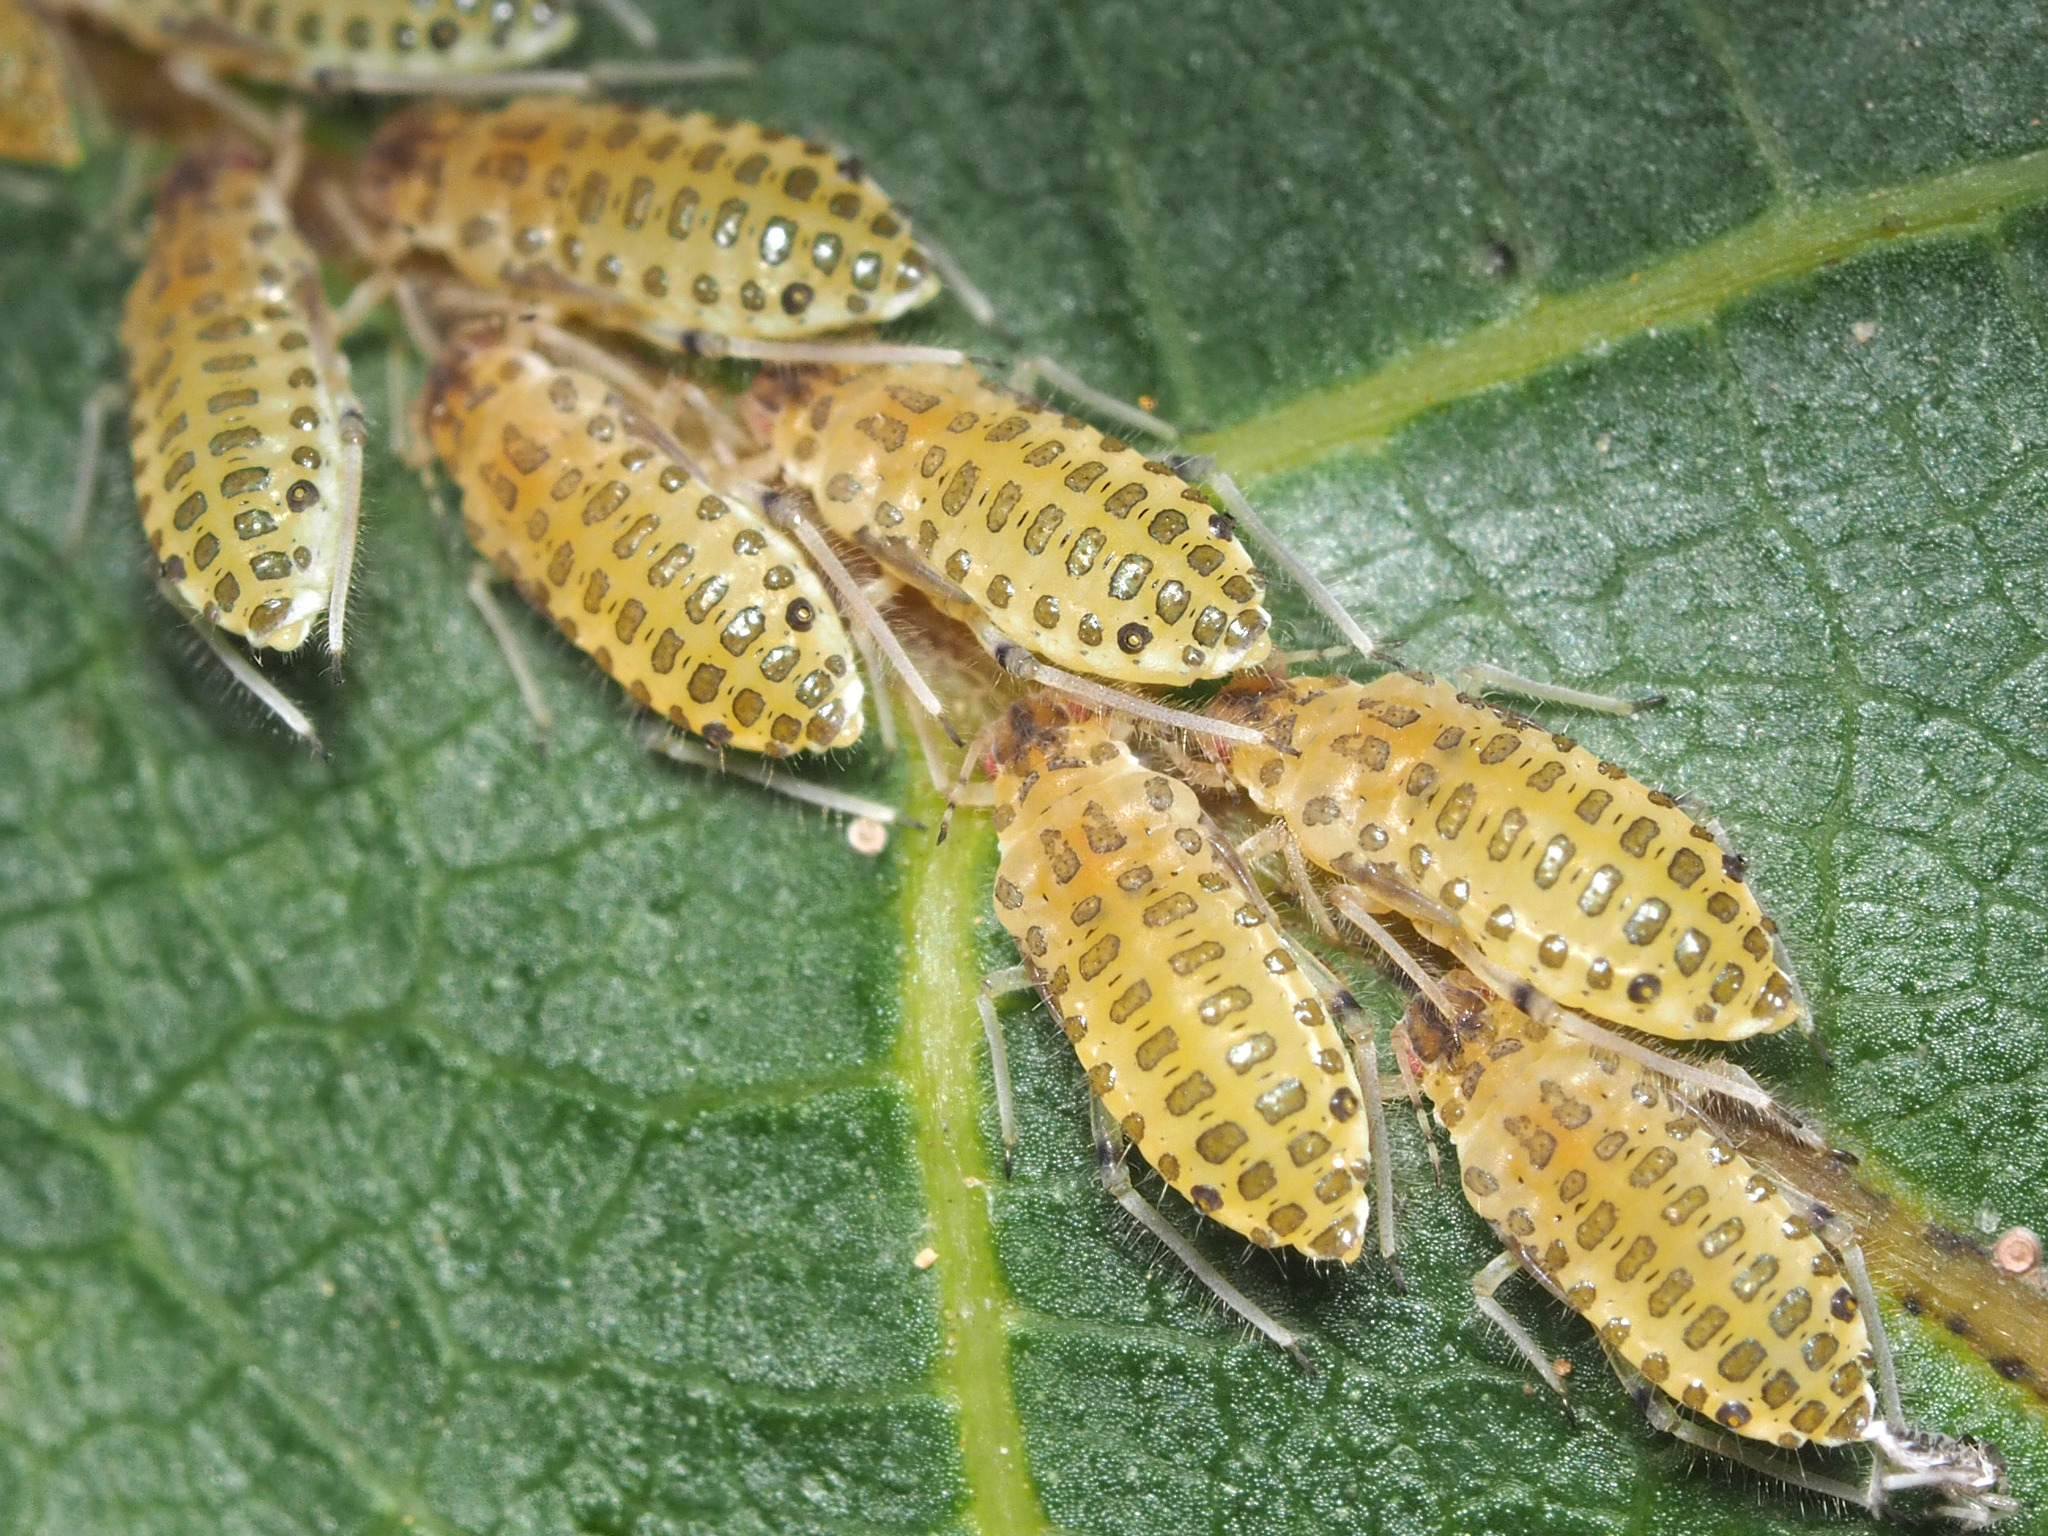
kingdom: Animalia
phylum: Arthropoda
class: Insecta
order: Hemiptera
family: Aphididae
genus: Panaphis
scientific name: Panaphis juglandis
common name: Large walnut aphid
